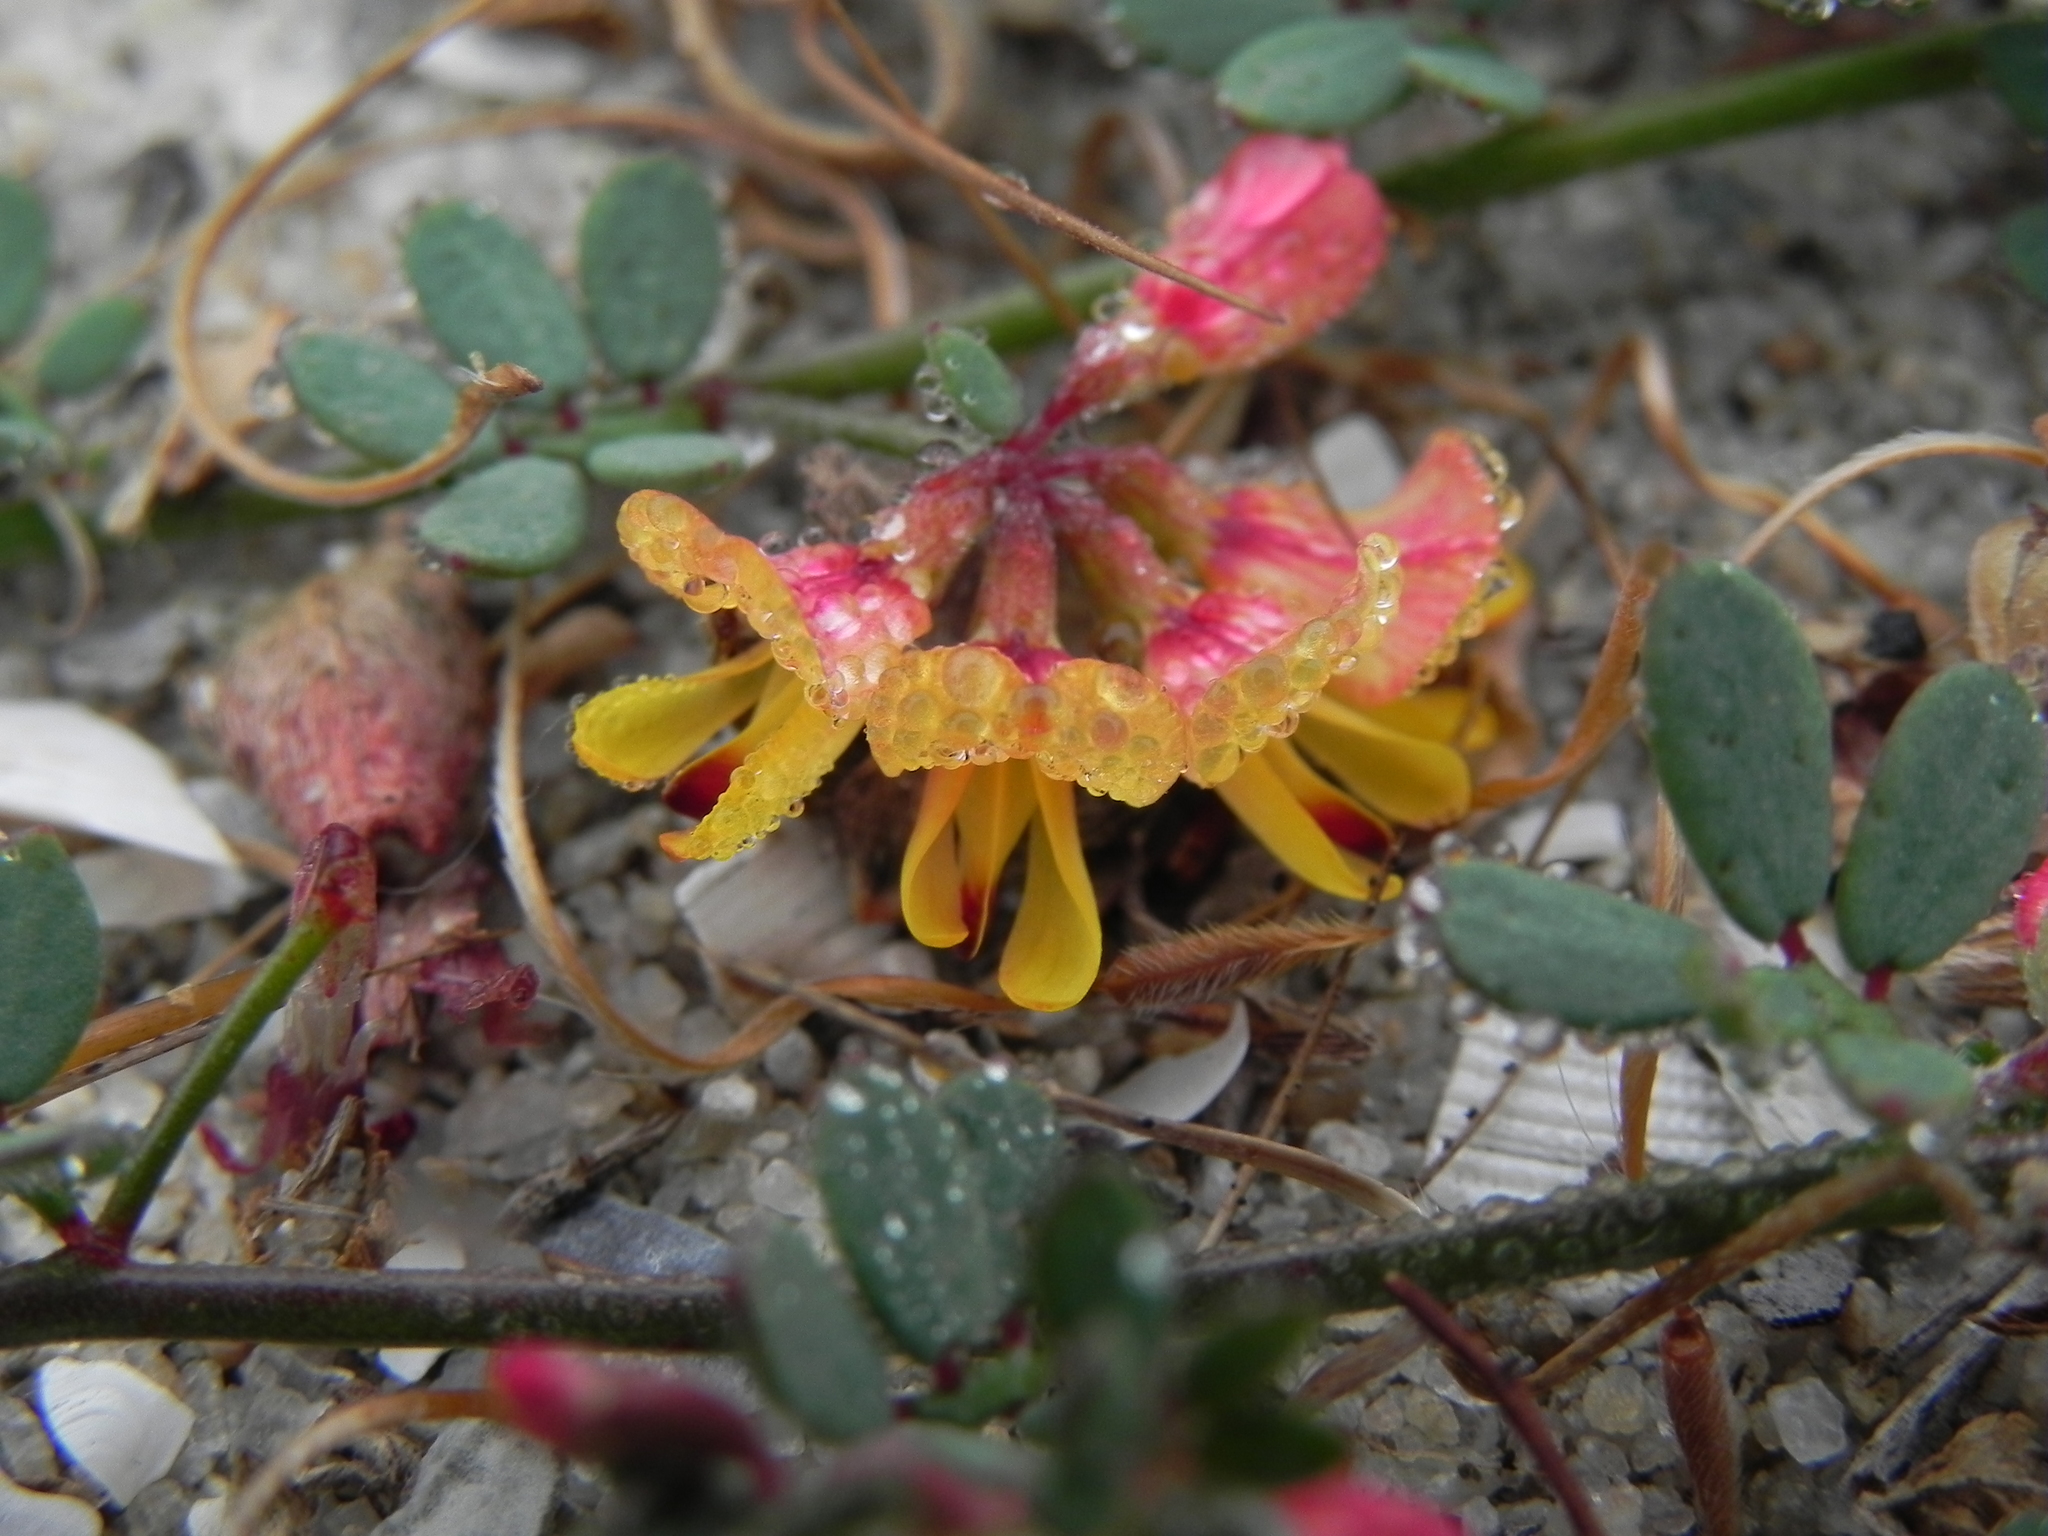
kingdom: Plantae
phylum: Tracheophyta
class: Magnoliopsida
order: Fabales
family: Fabaceae
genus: Acmispon
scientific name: Acmispon prostratus
